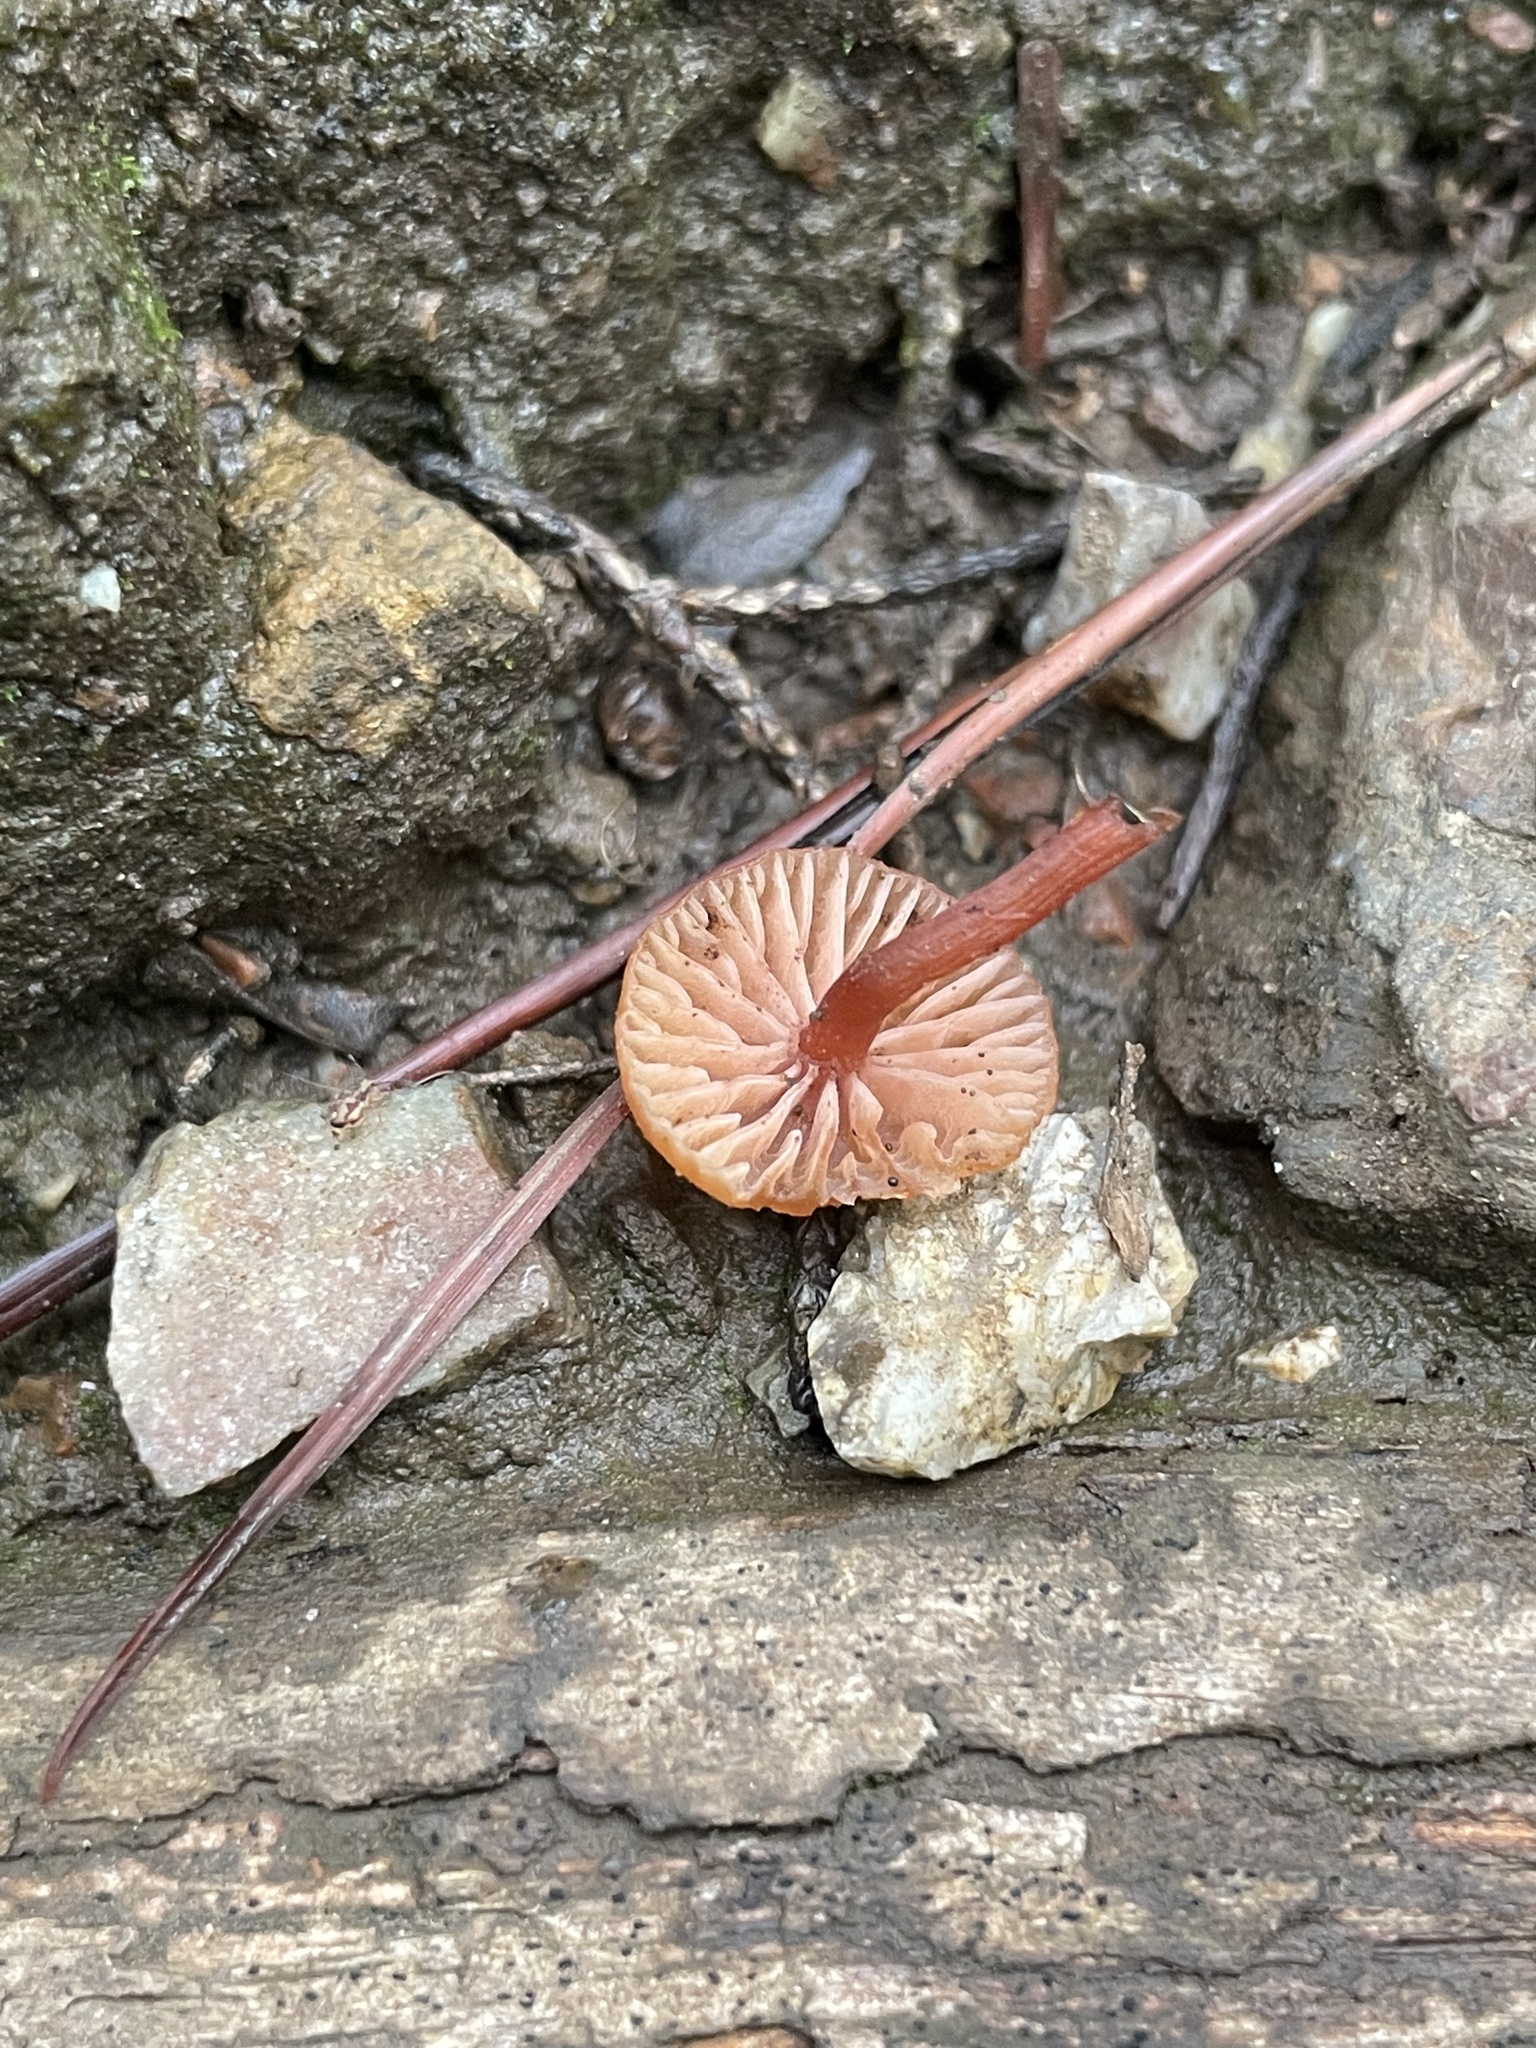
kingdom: Fungi
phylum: Basidiomycota
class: Agaricomycetes
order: Agaricales
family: Hydnangiaceae
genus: Laccaria
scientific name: Laccaria fraterna
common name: Gumtree deceiver
